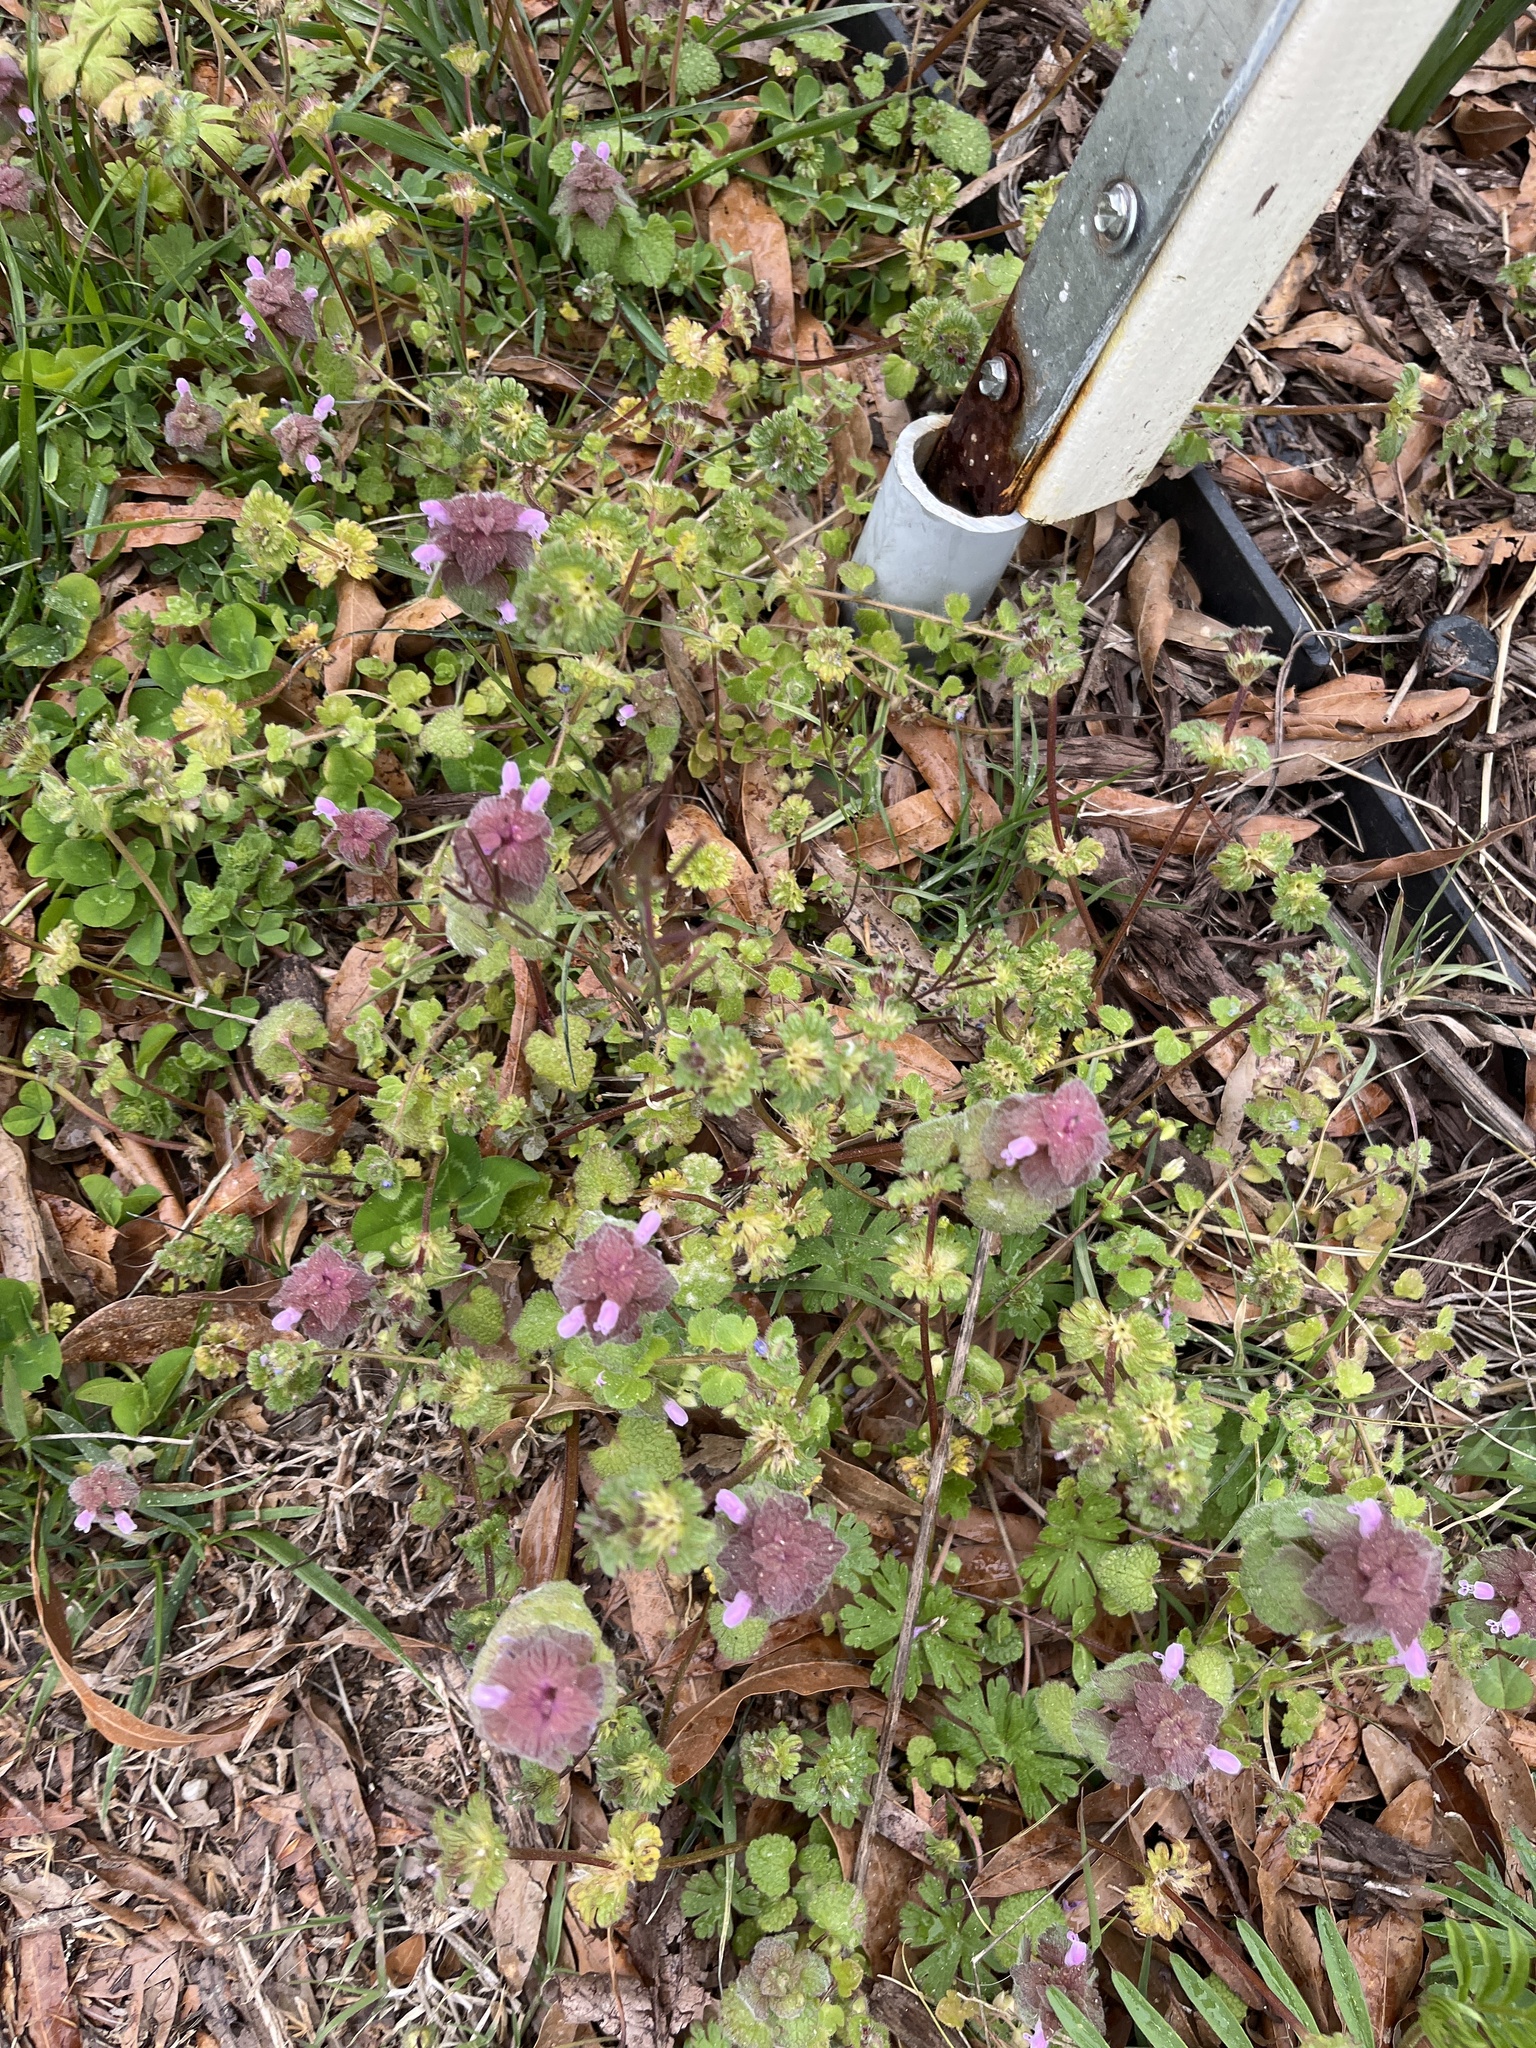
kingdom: Plantae
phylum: Tracheophyta
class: Magnoliopsida
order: Lamiales
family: Lamiaceae
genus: Lamium
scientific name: Lamium purpureum
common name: Red dead-nettle
